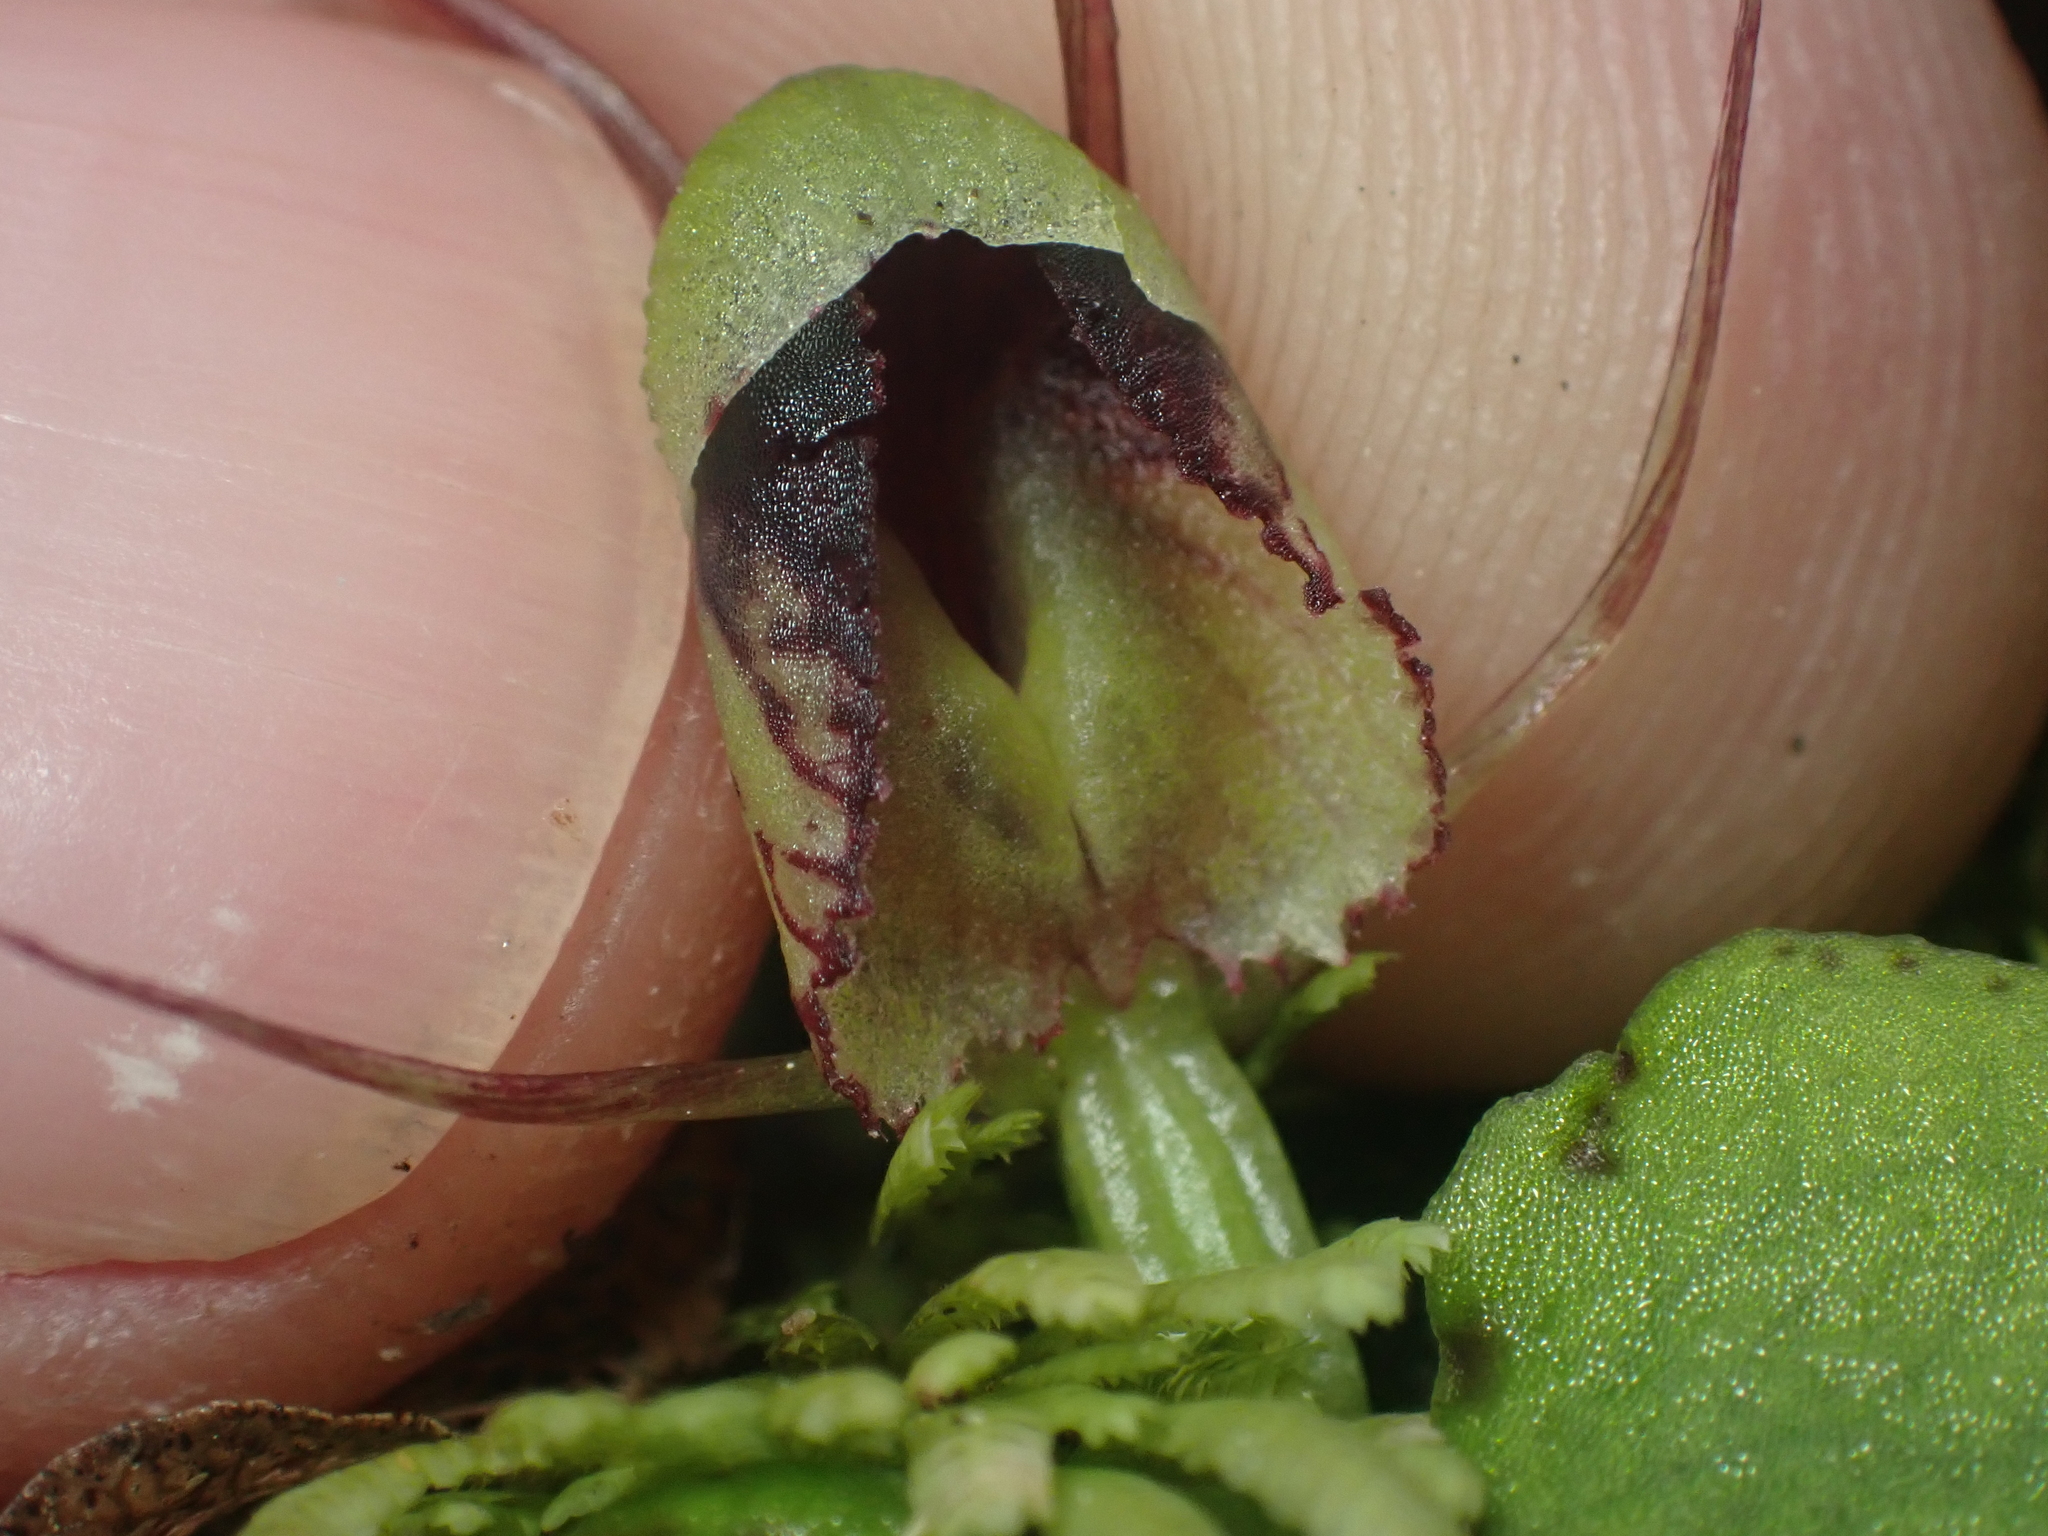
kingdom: Plantae
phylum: Tracheophyta
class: Liliopsida
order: Asparagales
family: Orchidaceae
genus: Corybas
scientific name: Corybas vitreus
